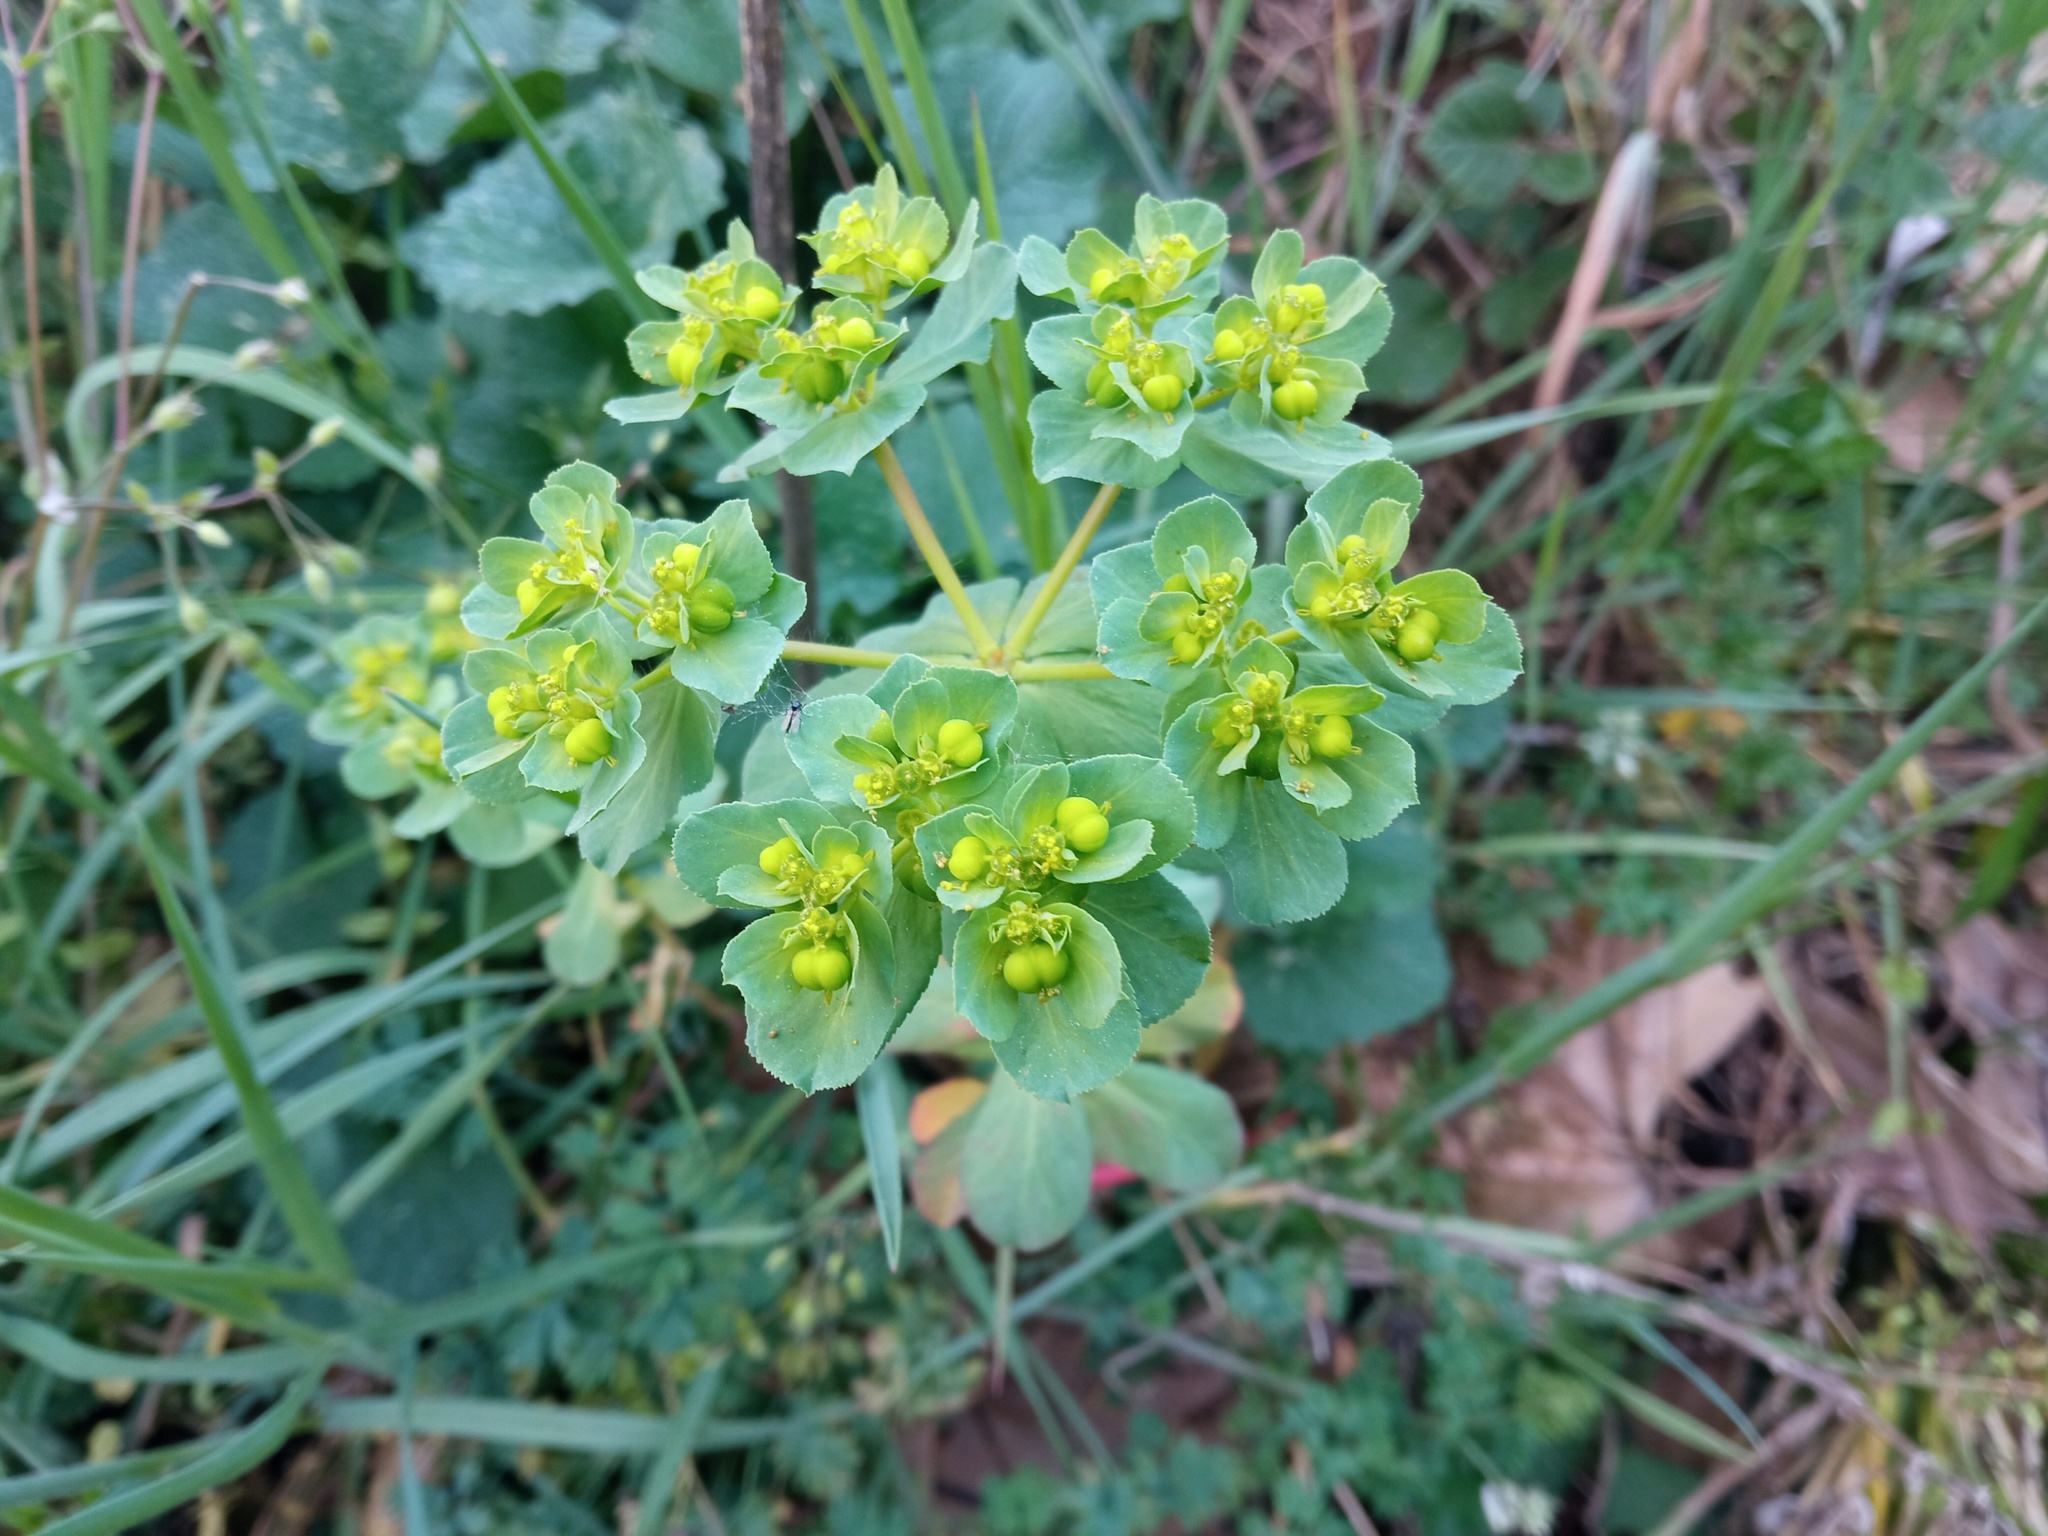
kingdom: Plantae
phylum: Tracheophyta
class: Magnoliopsida
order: Malpighiales
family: Euphorbiaceae
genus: Euphorbia
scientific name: Euphorbia helioscopia
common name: Sun spurge
